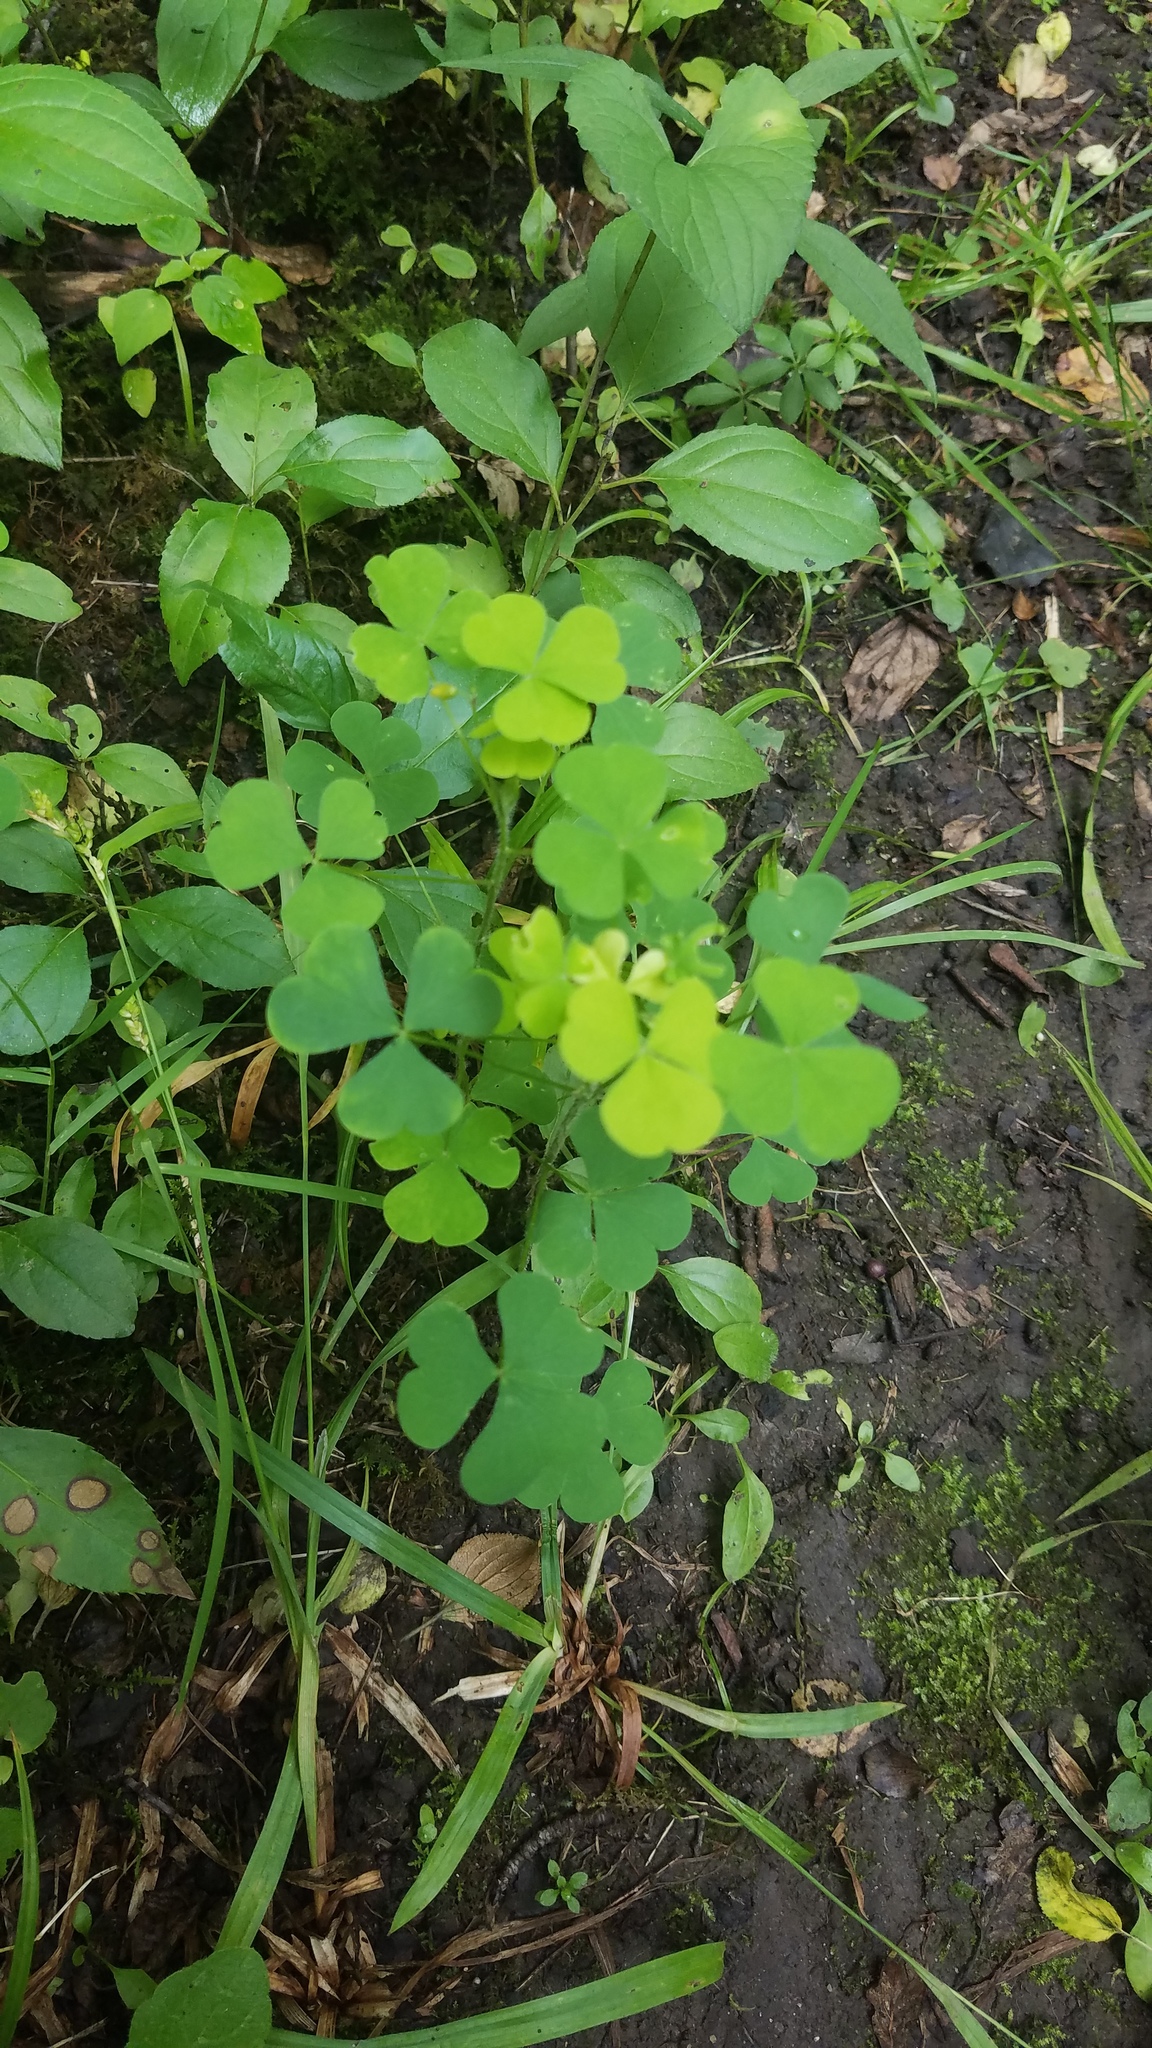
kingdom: Plantae
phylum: Tracheophyta
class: Magnoliopsida
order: Oxalidales
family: Oxalidaceae
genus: Oxalis
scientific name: Oxalis stricta
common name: Upright yellow-sorrel
